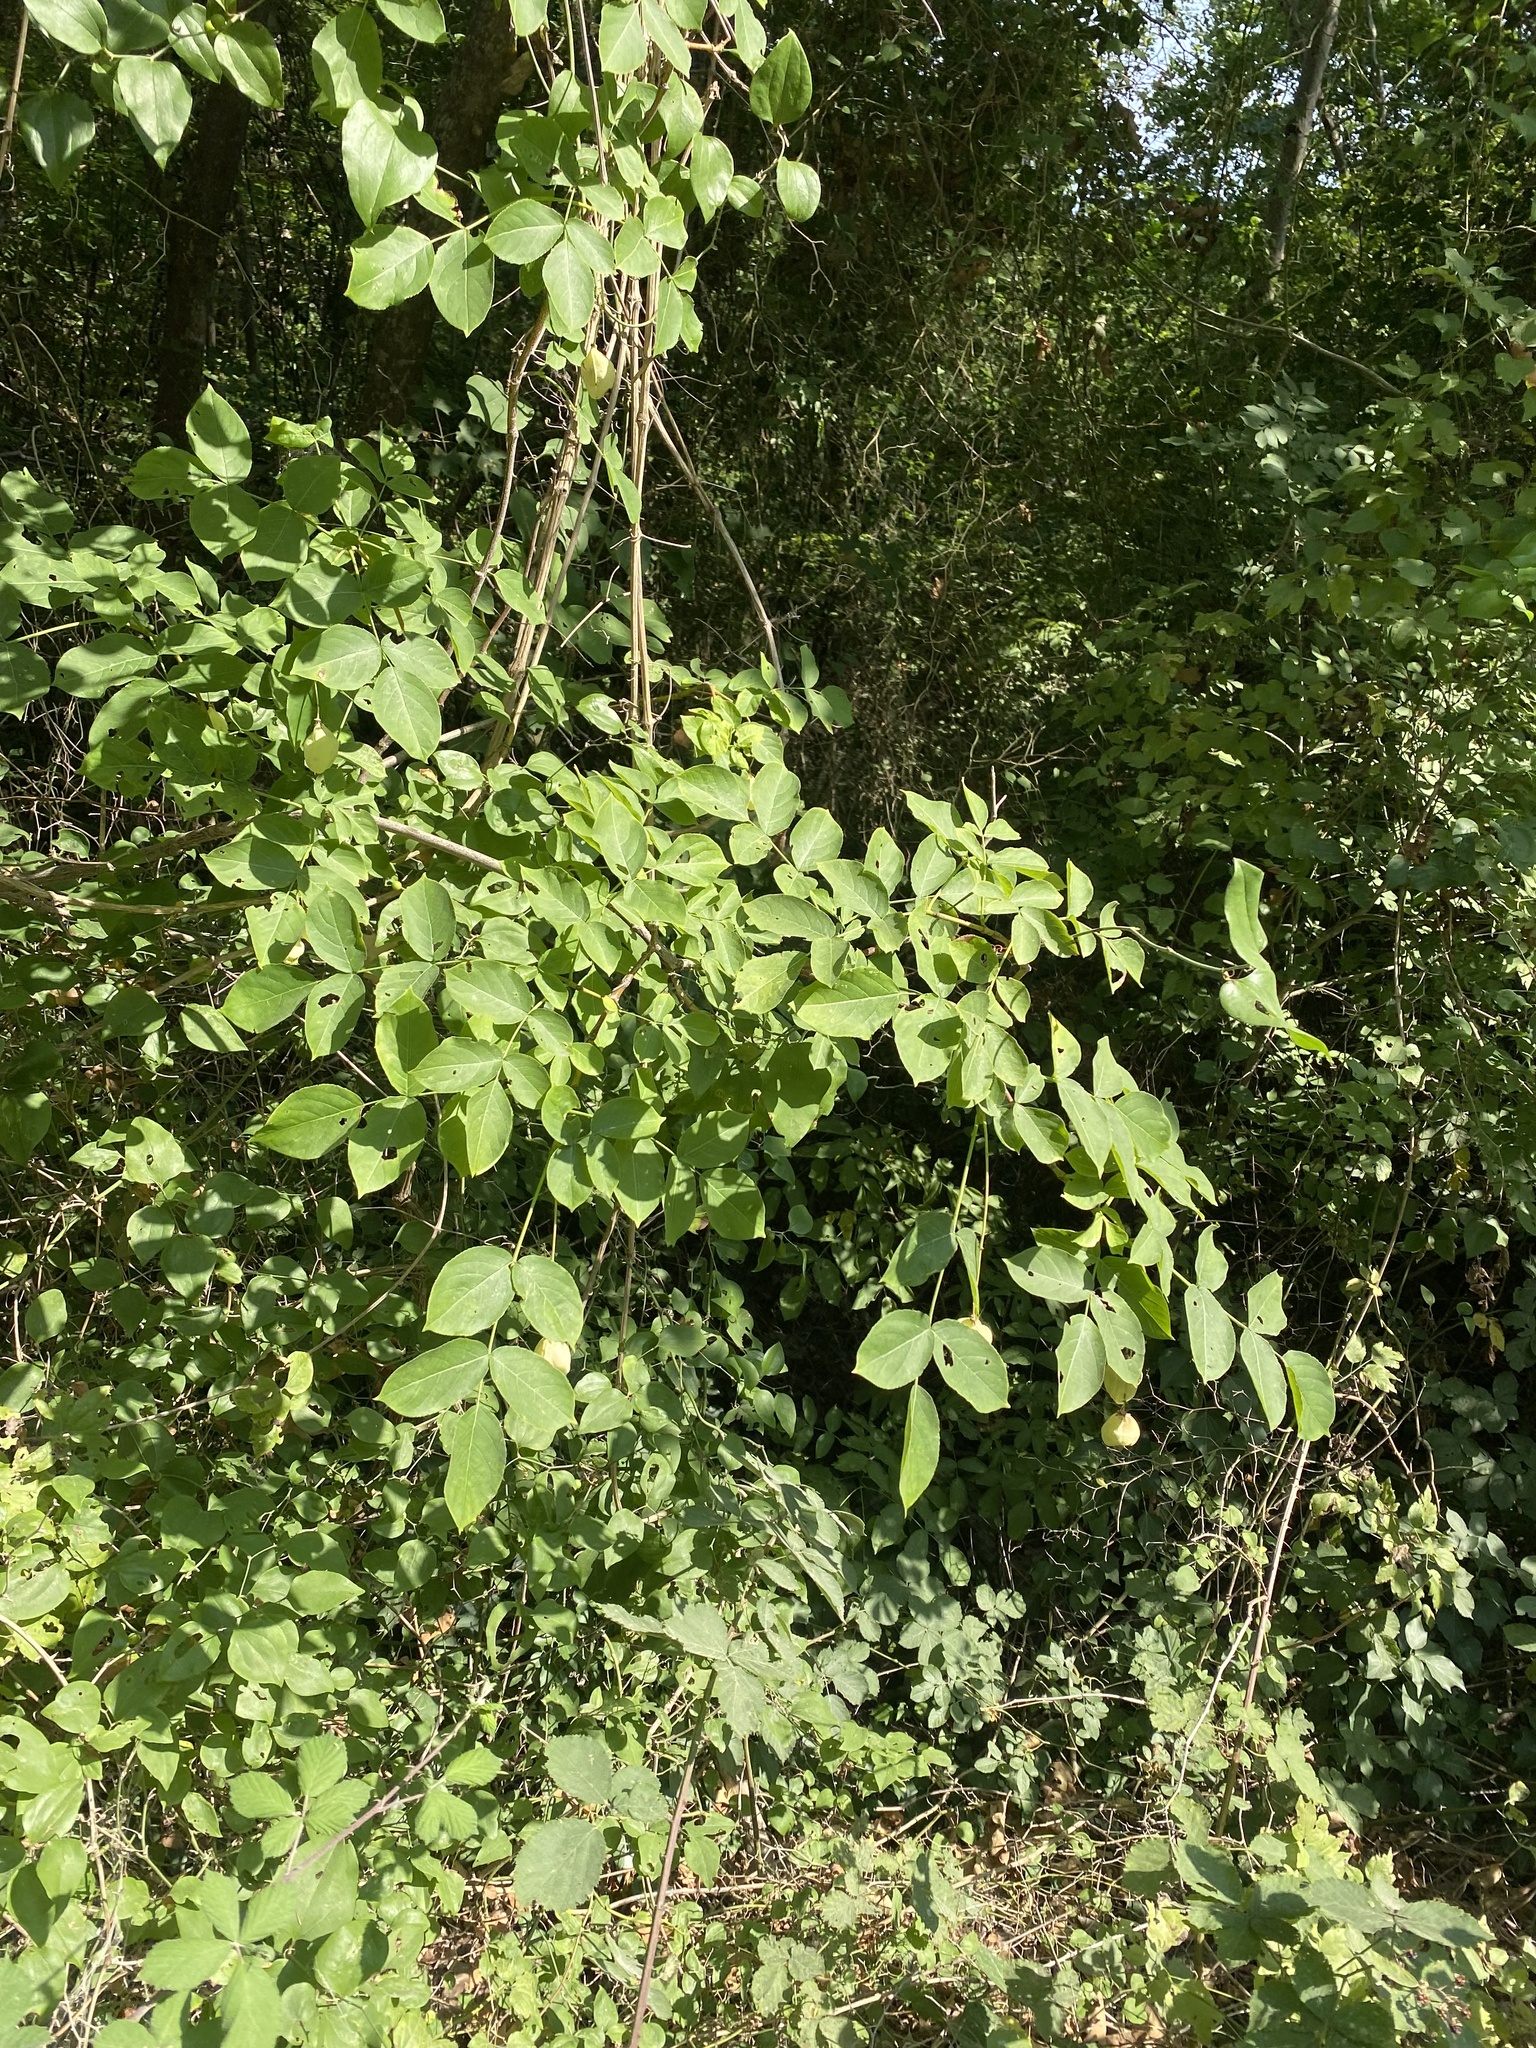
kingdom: Plantae
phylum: Tracheophyta
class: Magnoliopsida
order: Crossosomatales
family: Staphyleaceae
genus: Staphylea
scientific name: Staphylea pinnata
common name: Bladdernut
